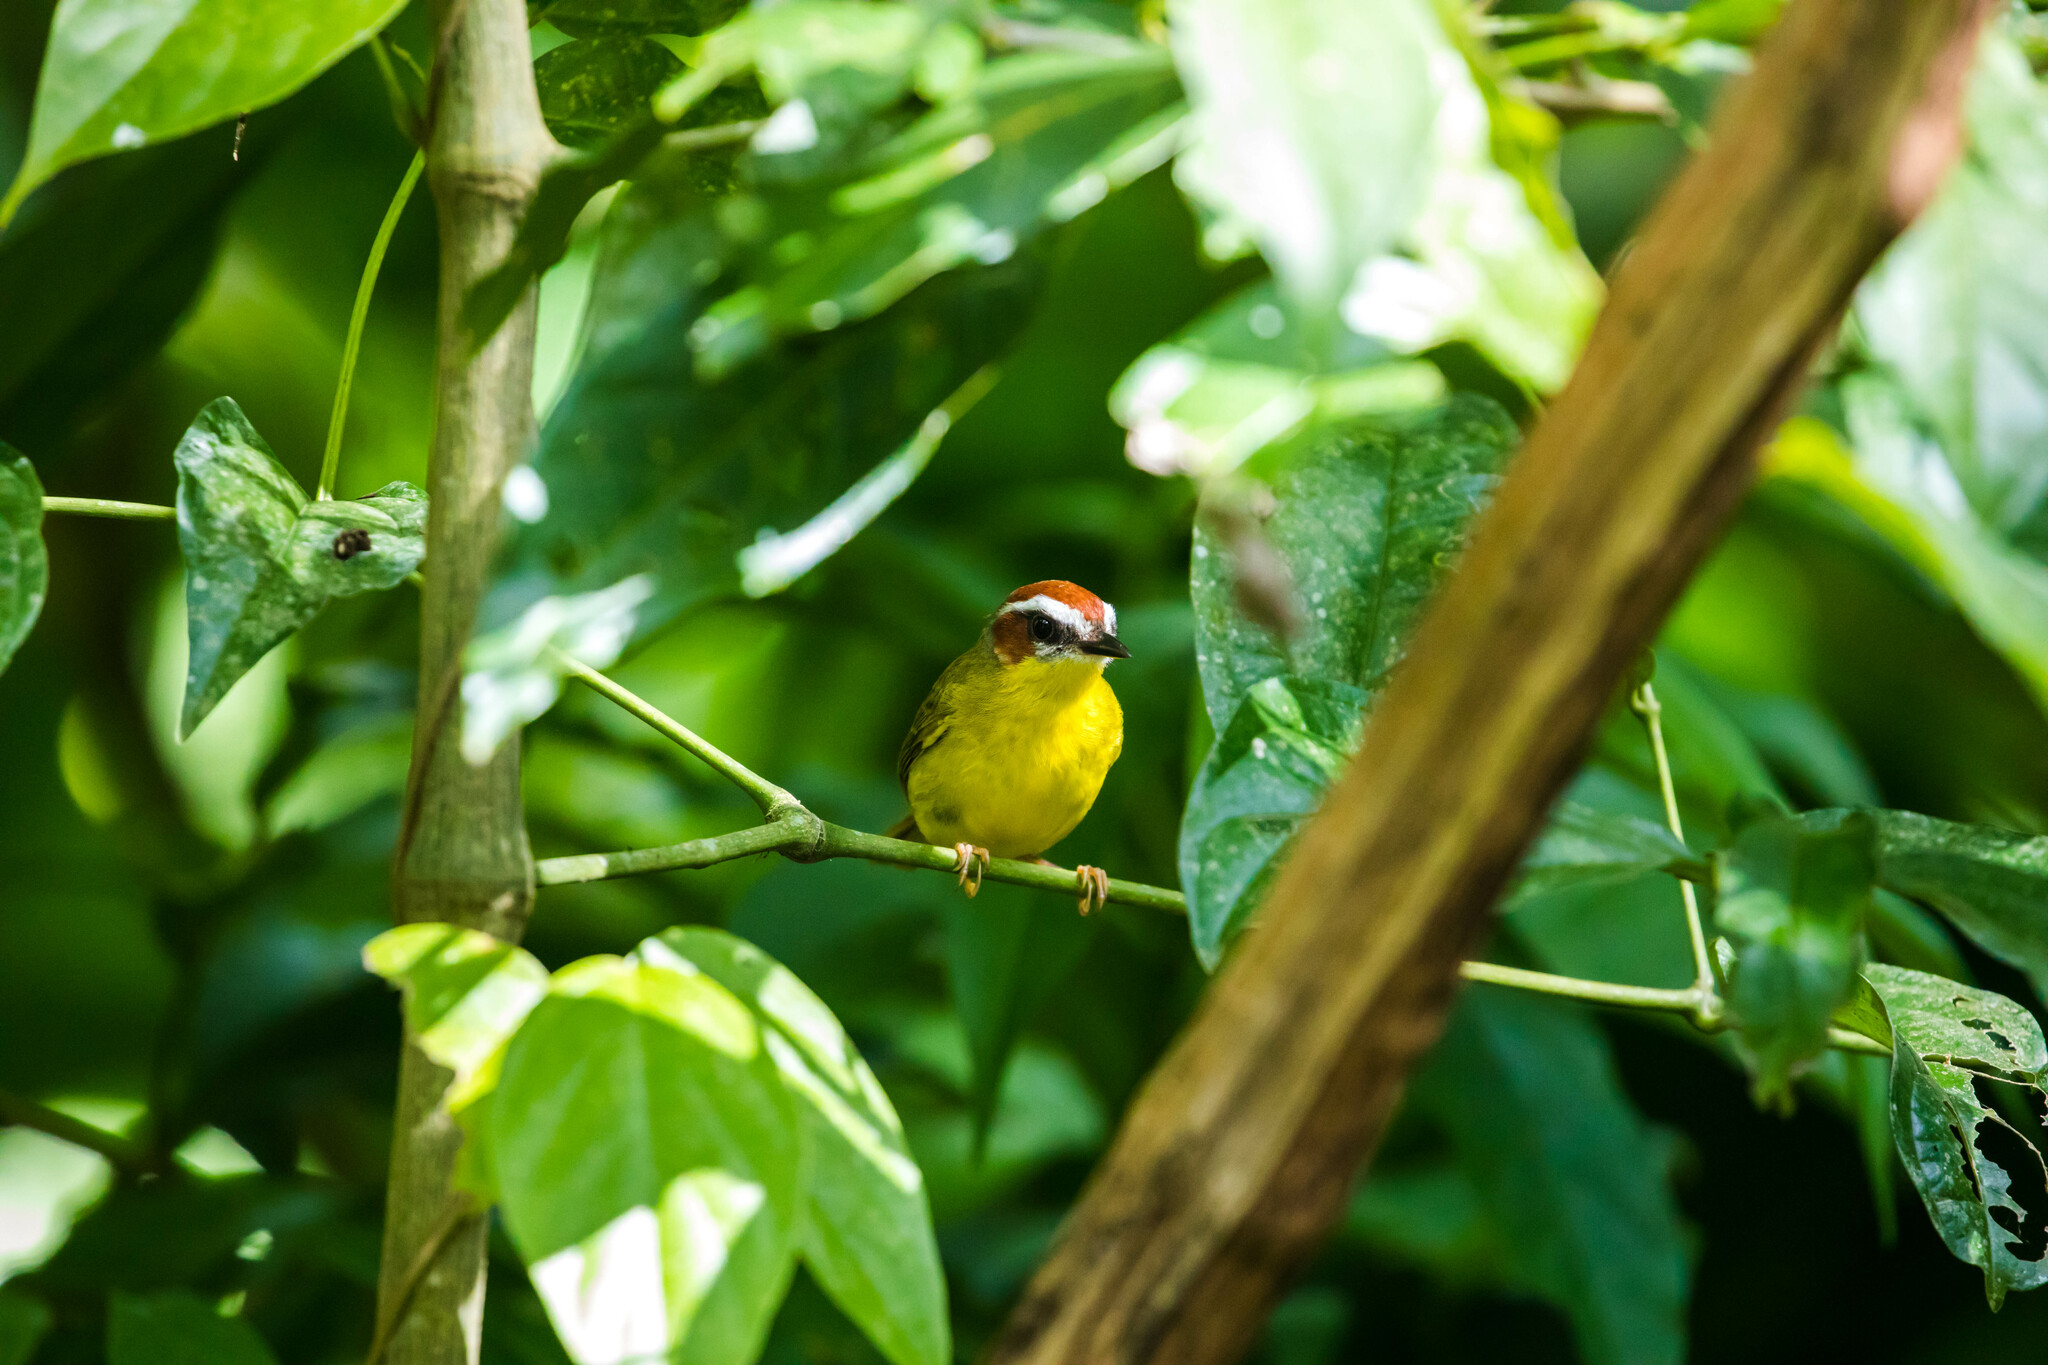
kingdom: Animalia
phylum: Chordata
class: Aves
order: Passeriformes
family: Parulidae
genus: Basileuterus
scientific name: Basileuterus rufifrons
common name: Rufous-capped warbler
